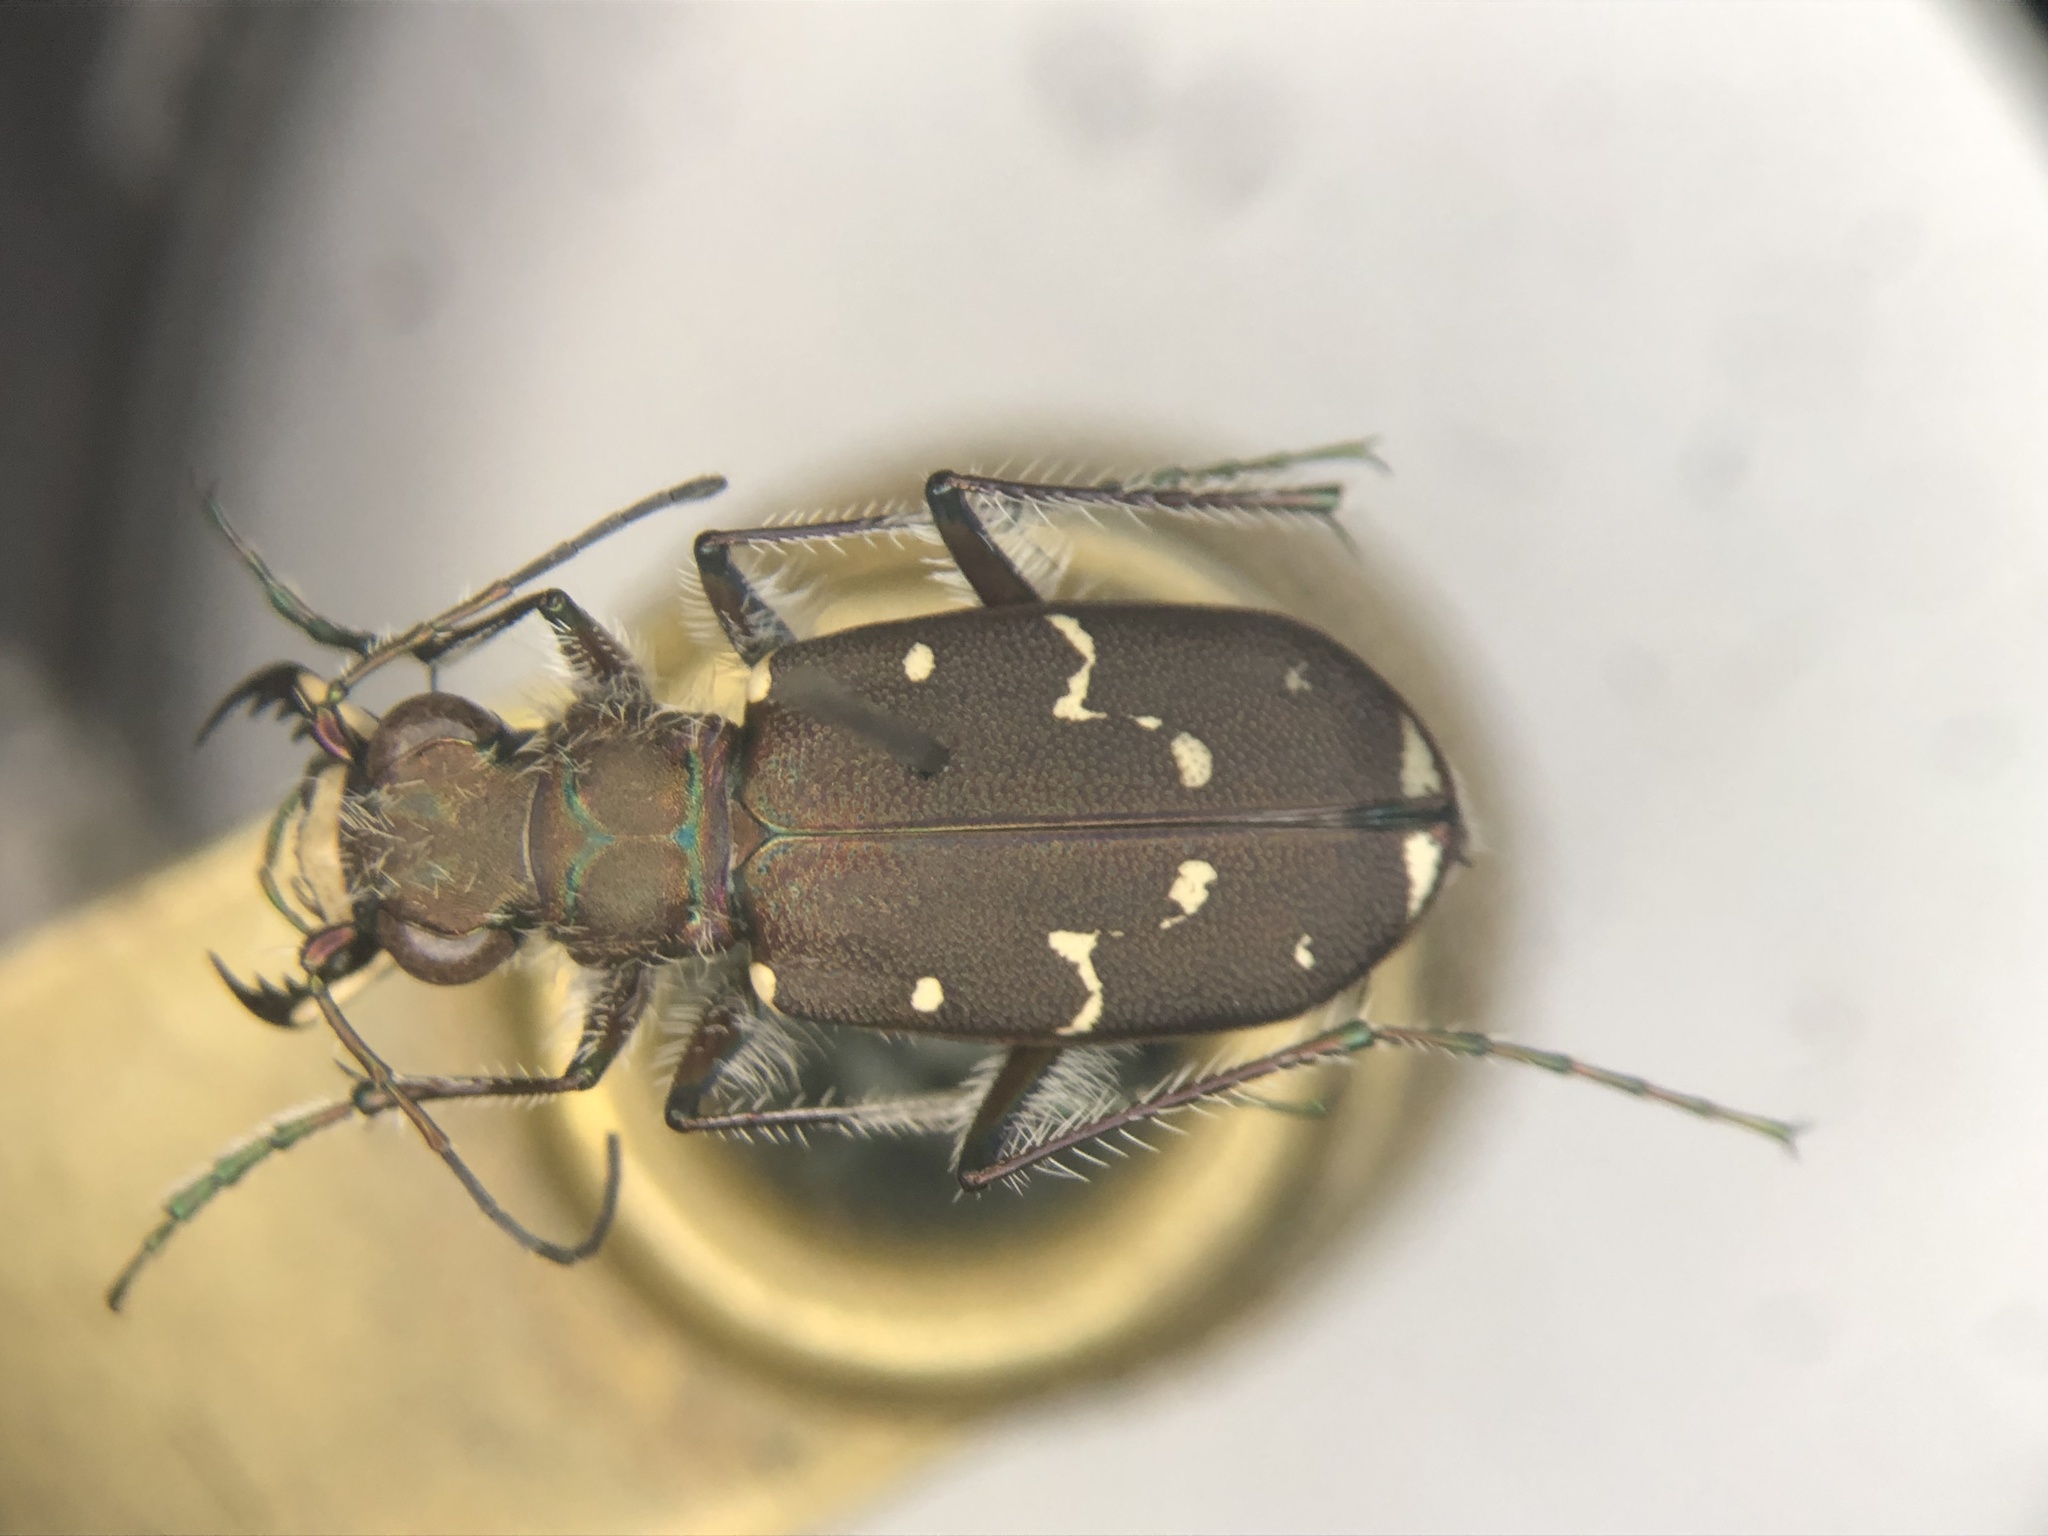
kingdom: Animalia
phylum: Arthropoda
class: Insecta
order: Coleoptera
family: Carabidae
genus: Cicindela
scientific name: Cicindela duodecimguttata
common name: Twelve-spotted tiger beetle
